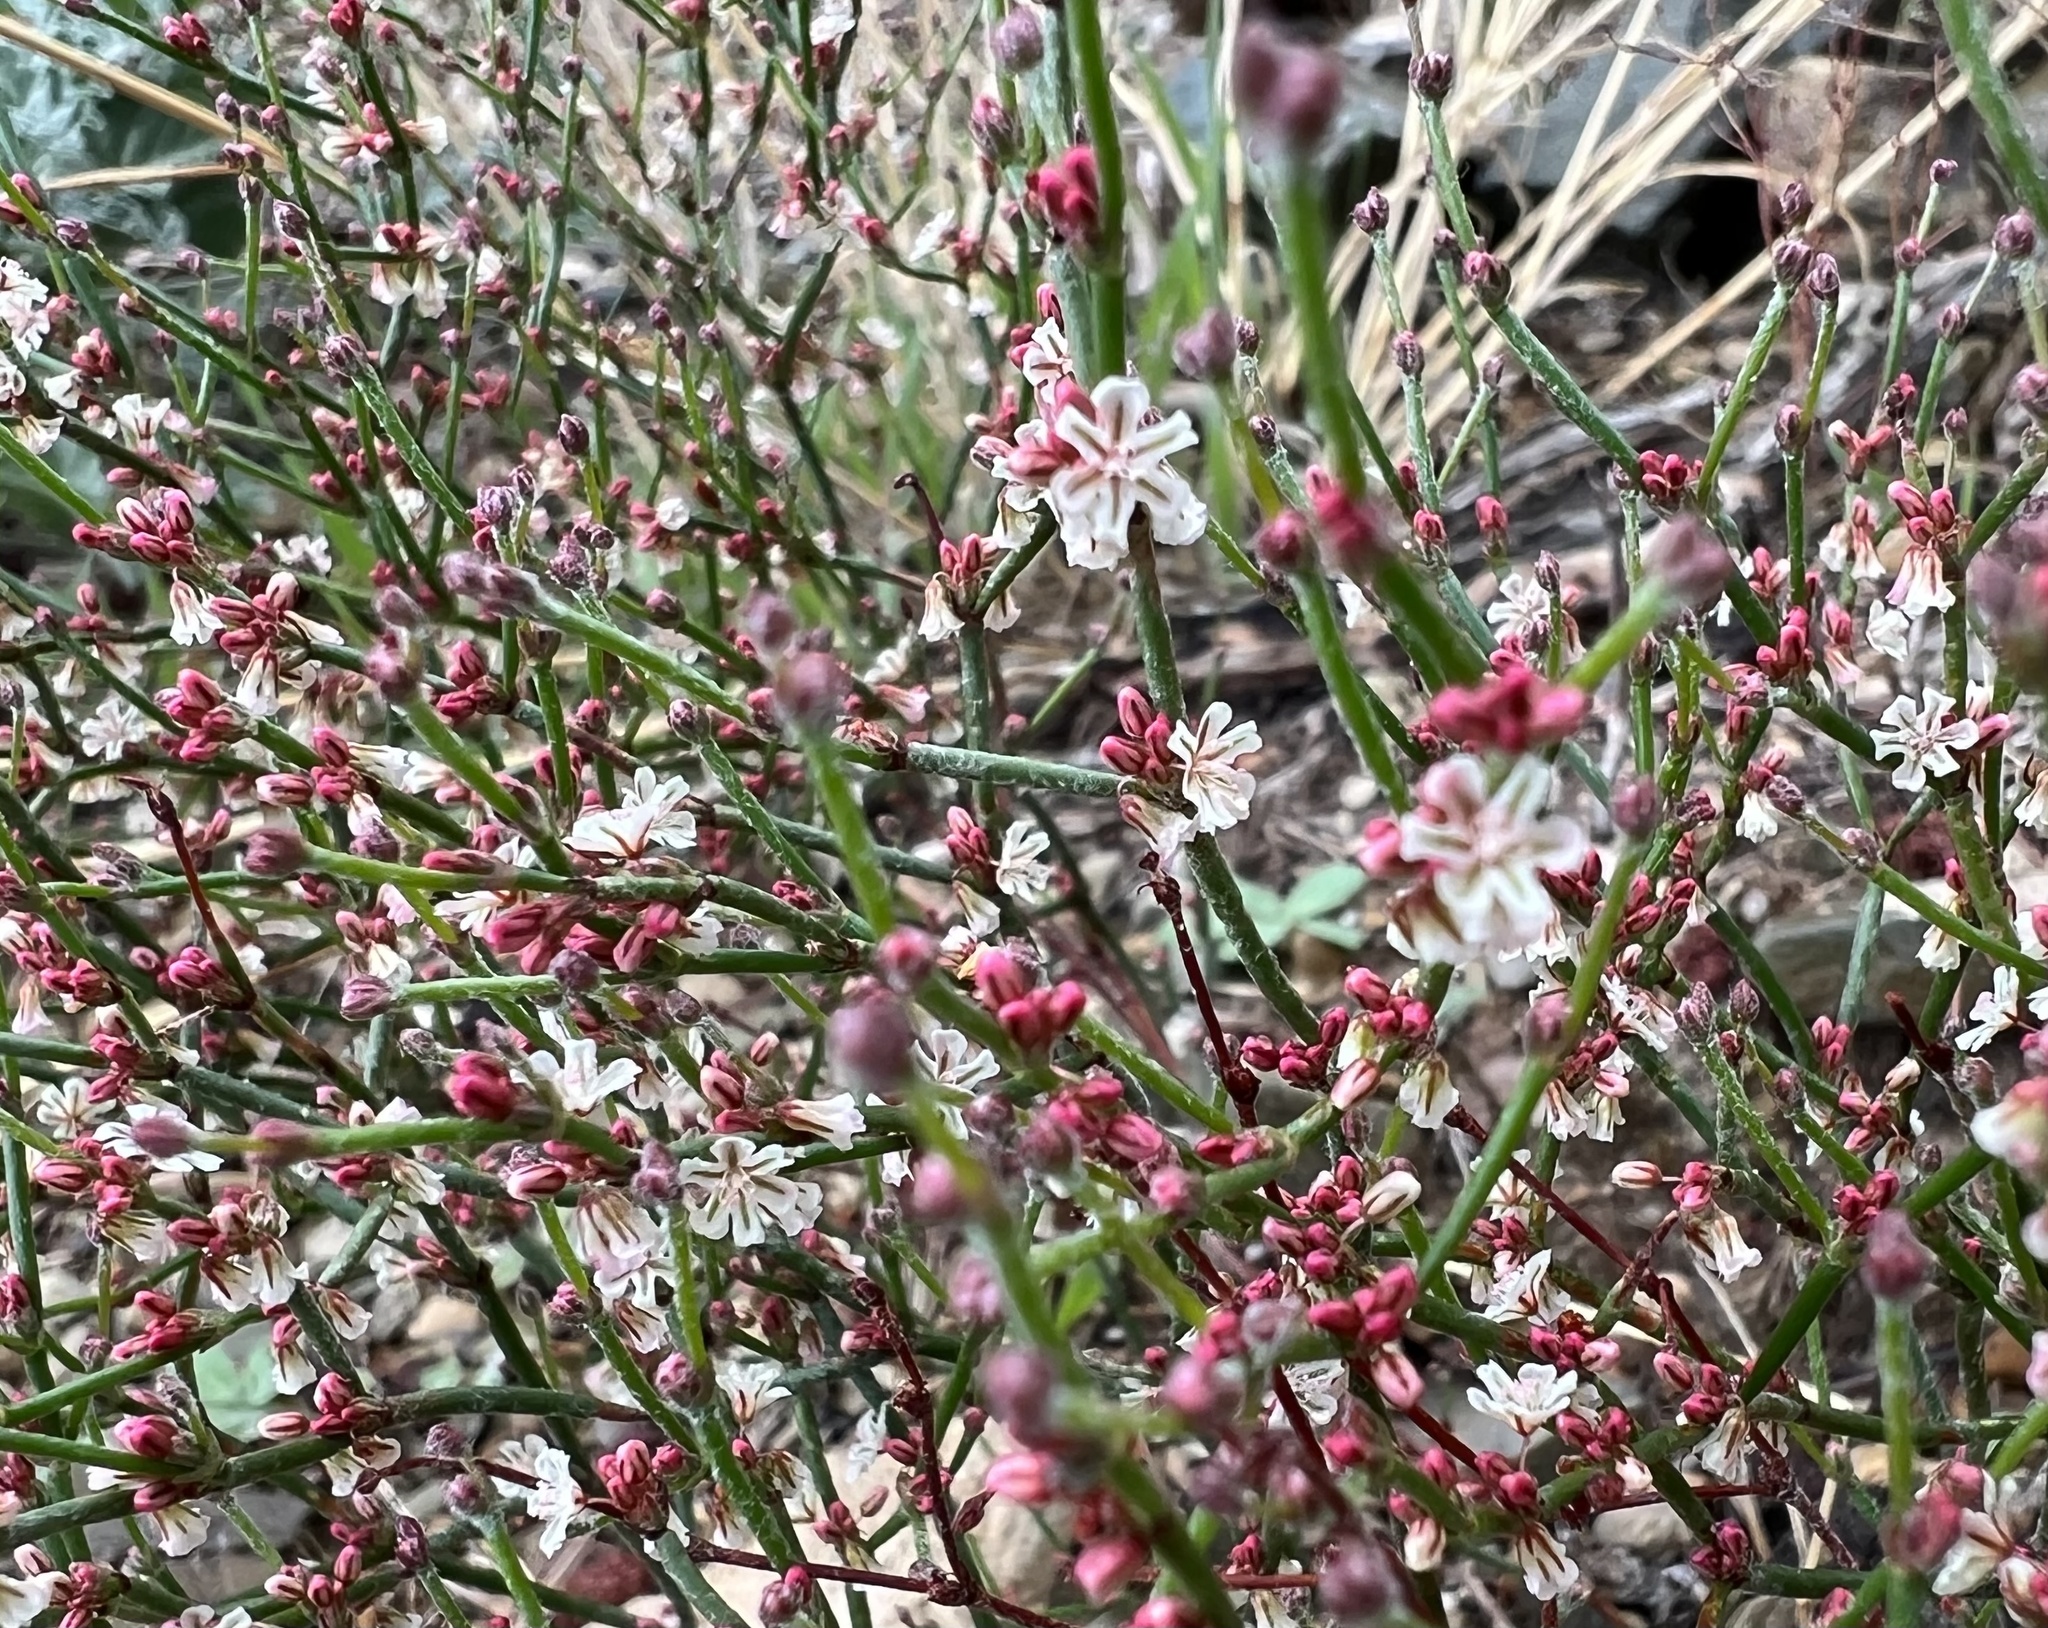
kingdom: Plantae
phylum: Tracheophyta
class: Magnoliopsida
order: Caryophyllales
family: Polygonaceae
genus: Eriogonum
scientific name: Eriogonum palmerianum
